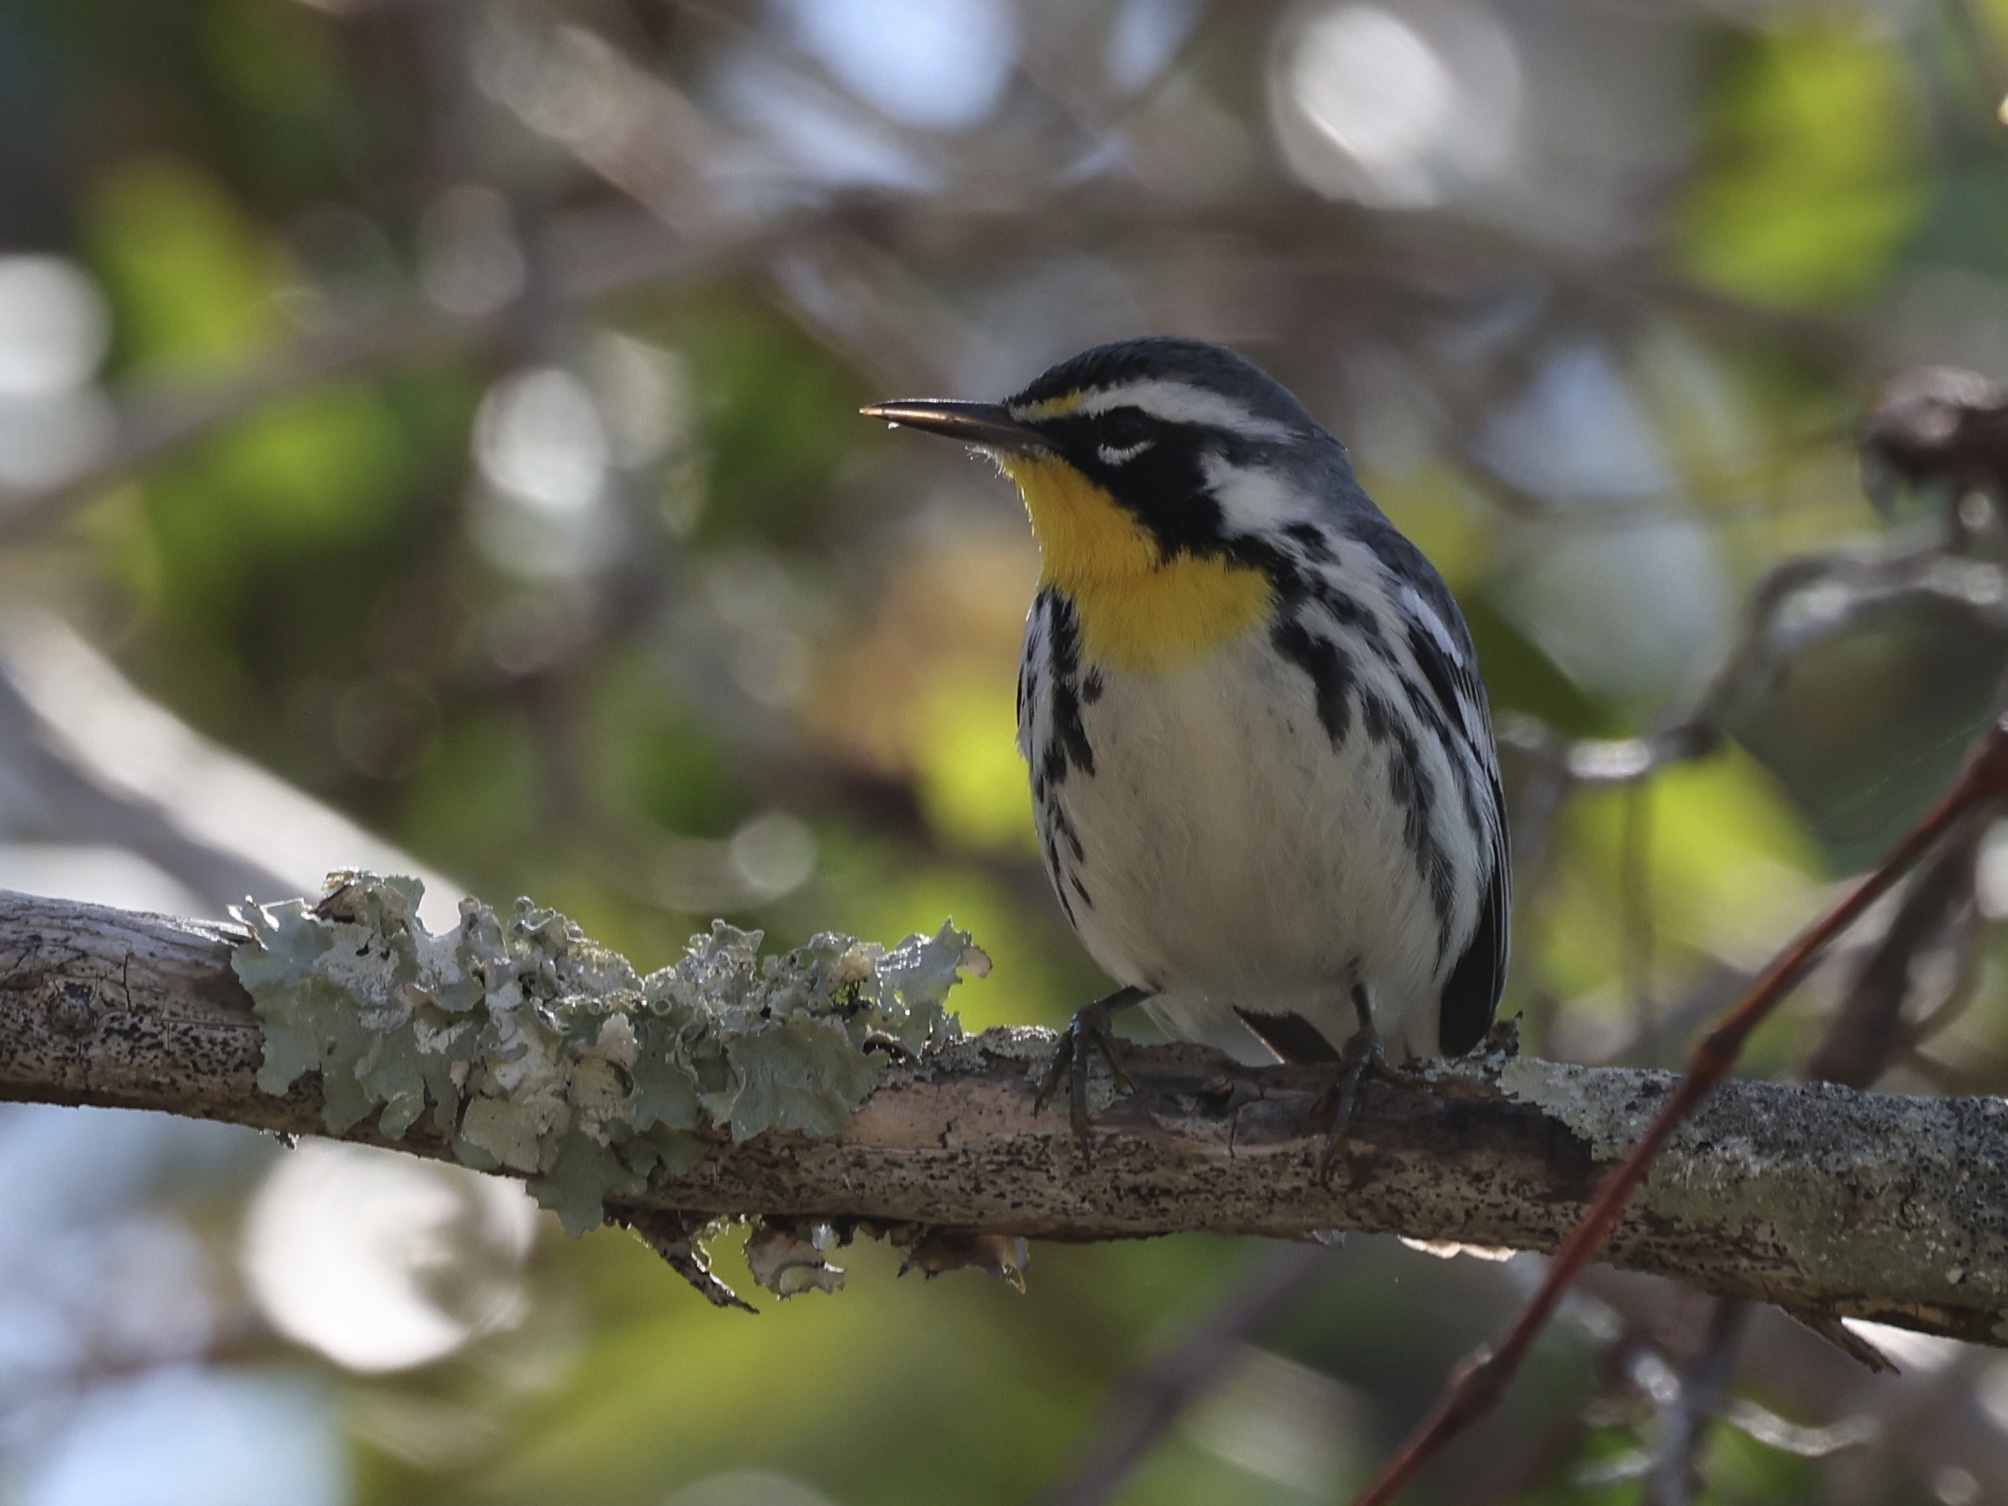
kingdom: Animalia
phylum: Chordata
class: Aves
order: Passeriformes
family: Parulidae
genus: Setophaga
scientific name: Setophaga dominica
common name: Yellow-throated warbler
